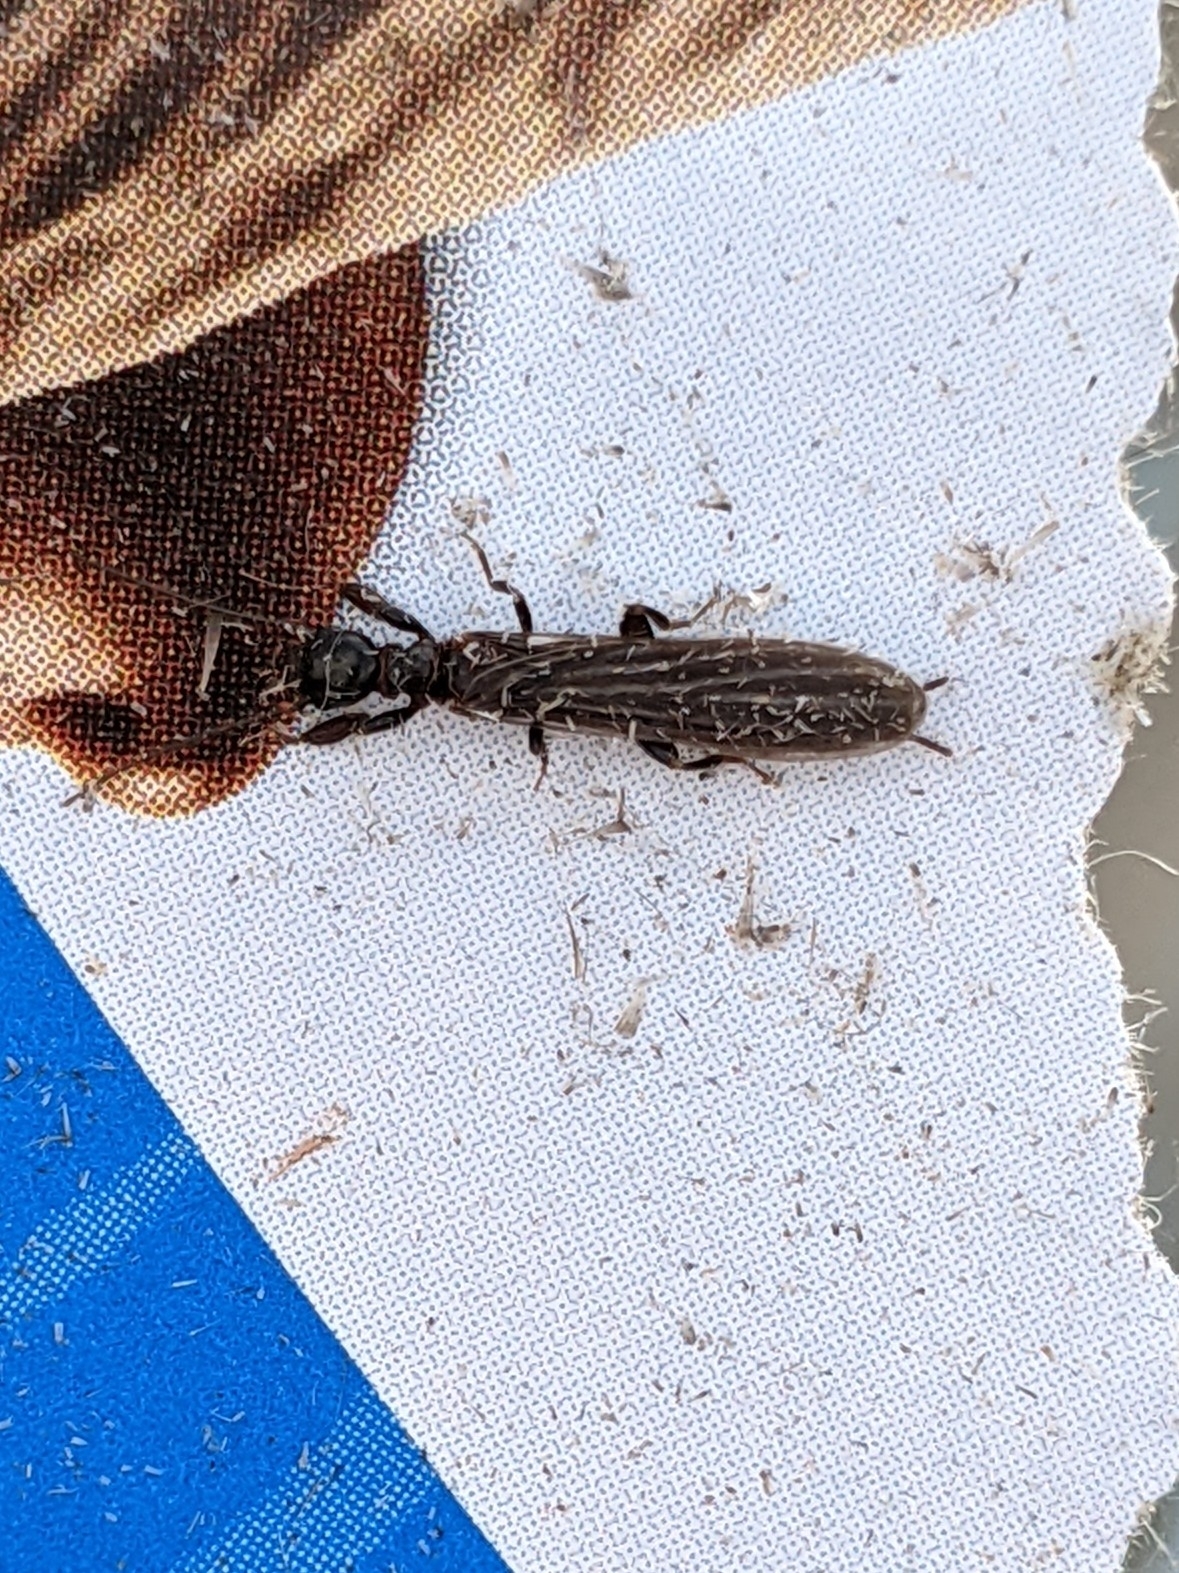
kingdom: Animalia
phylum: Arthropoda
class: Insecta
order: Embioptera
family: Oligotomidae
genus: Oligotoma
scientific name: Oligotoma nigra
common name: Black webspinner
